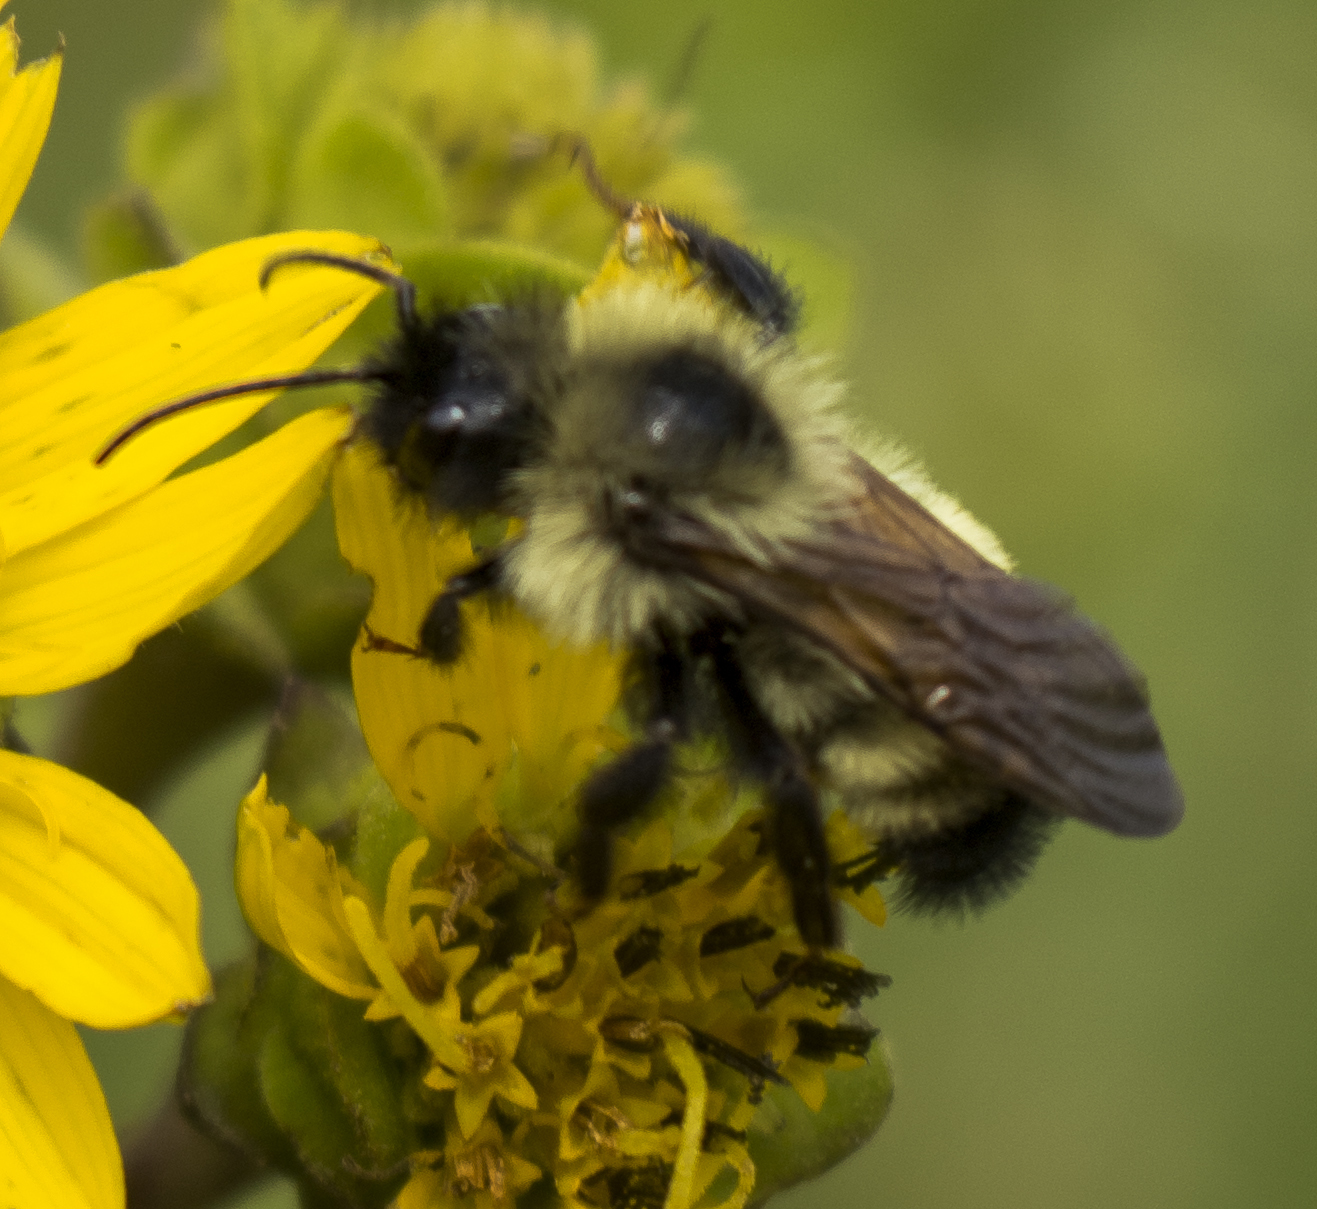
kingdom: Animalia
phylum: Arthropoda
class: Insecta
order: Hymenoptera
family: Apidae
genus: Bombus
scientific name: Bombus citrinus
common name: Lemon cuckoo bumble bee
